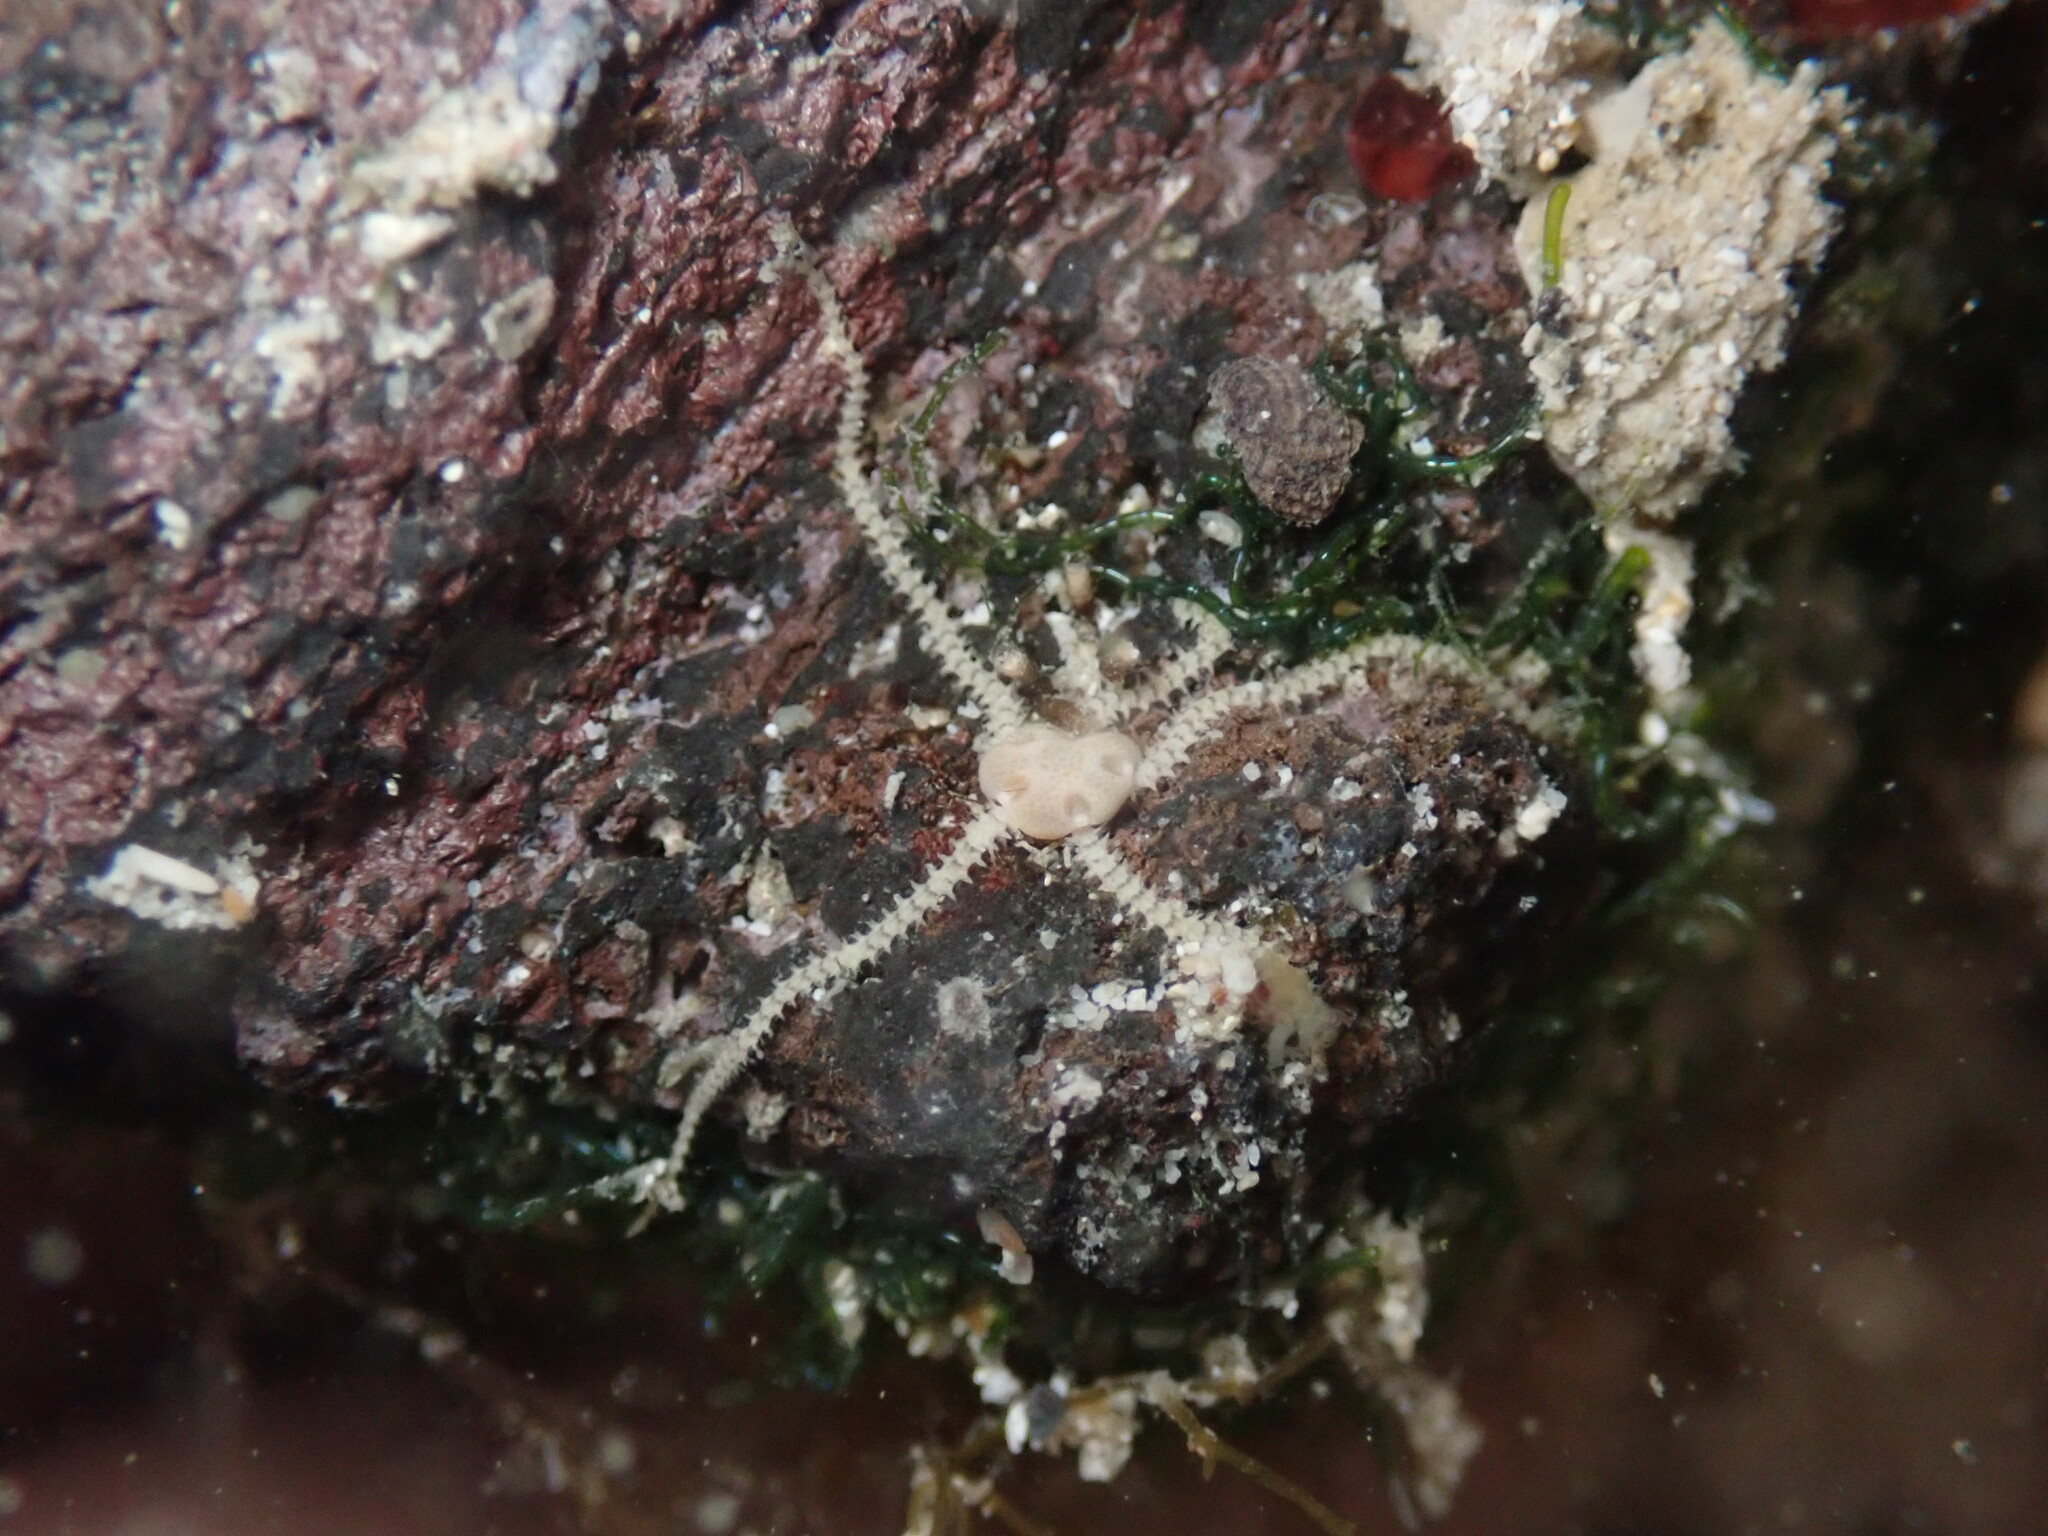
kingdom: Animalia
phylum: Echinodermata
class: Ophiuroidea
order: Amphilepidida
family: Amphiuridae
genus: Amphipholis
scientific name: Amphipholis squamata
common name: Brooding snake star
